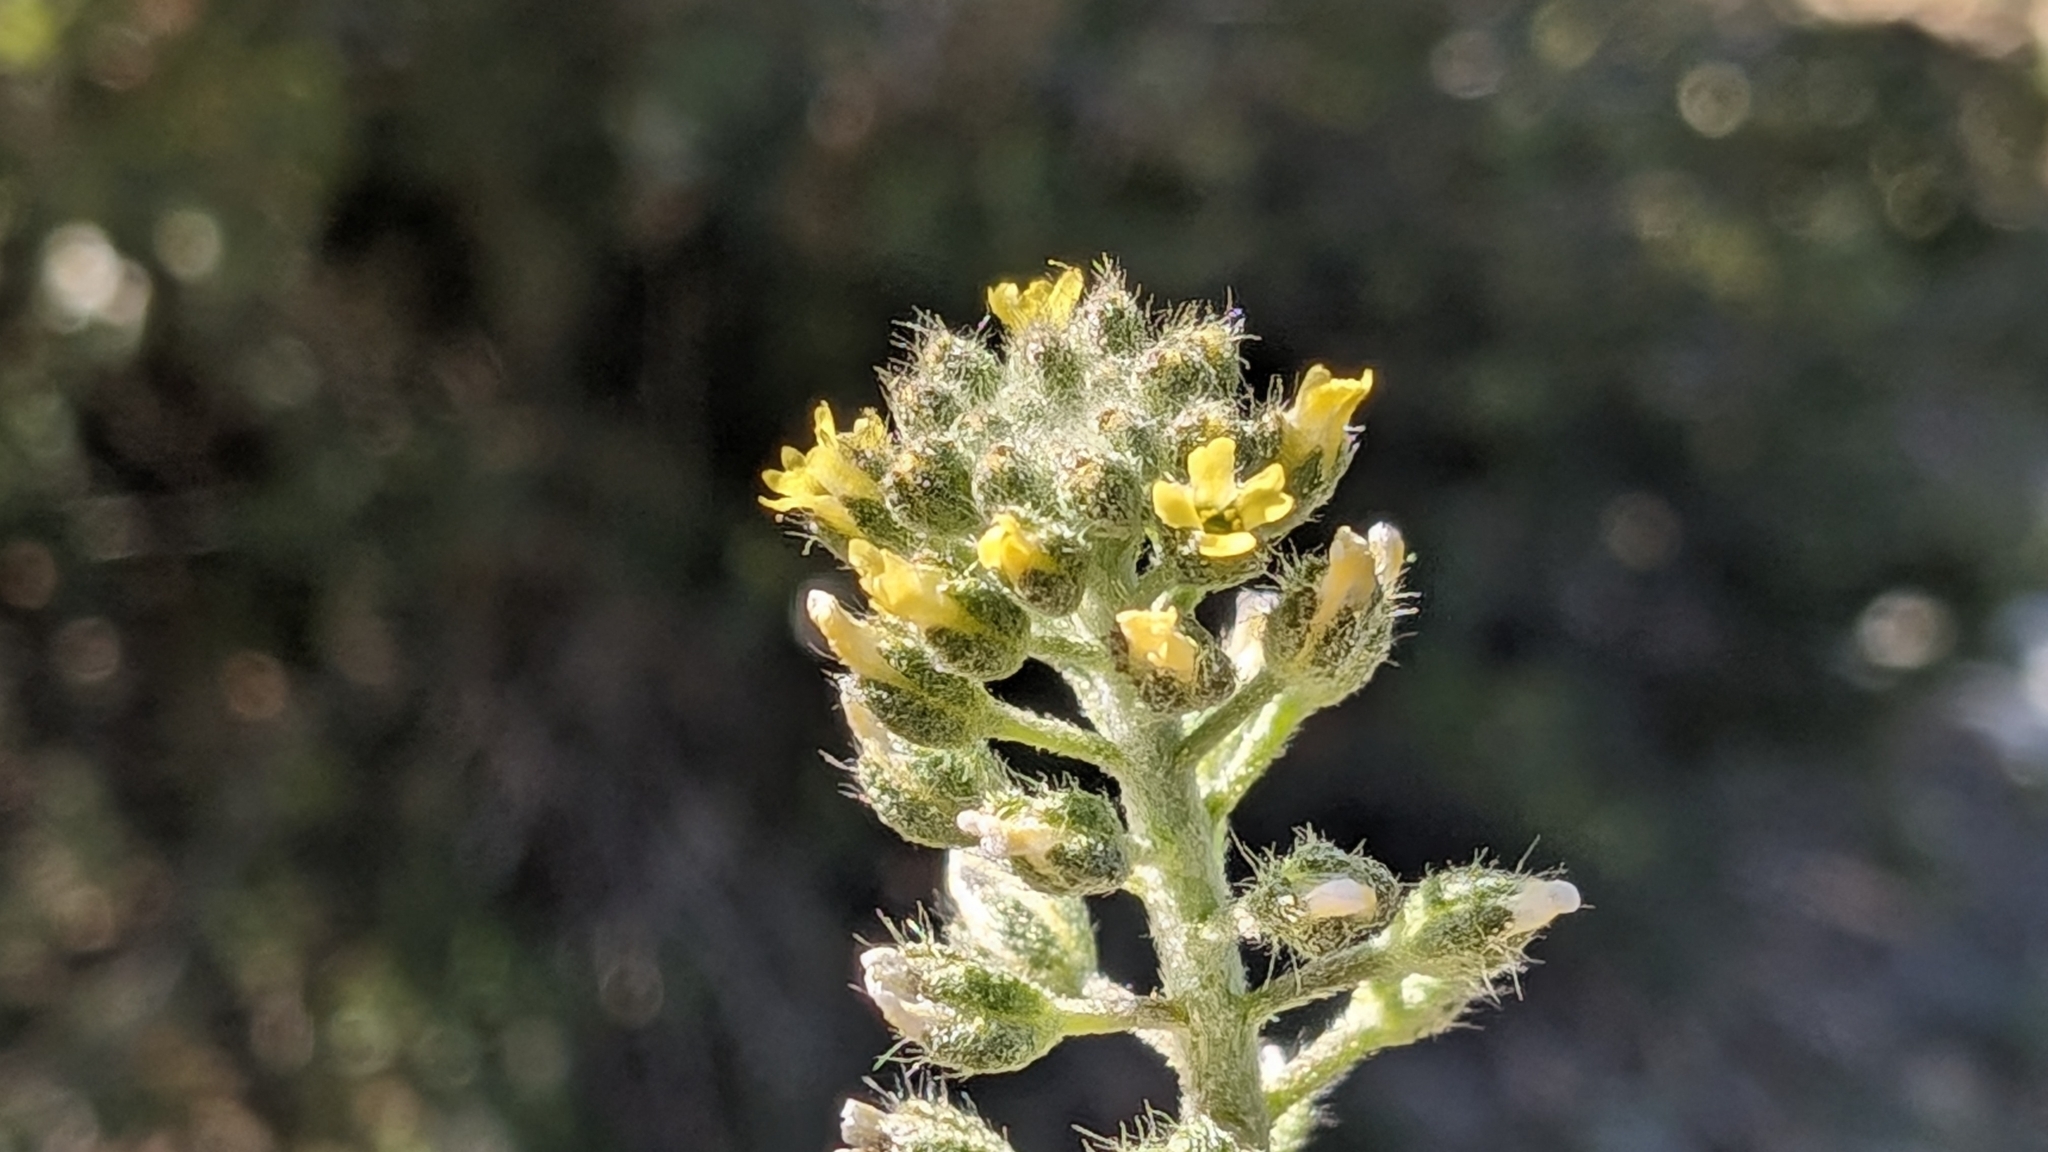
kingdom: Plantae
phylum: Tracheophyta
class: Magnoliopsida
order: Brassicales
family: Brassicaceae
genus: Alyssum
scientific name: Alyssum alyssoides
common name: Small alison
